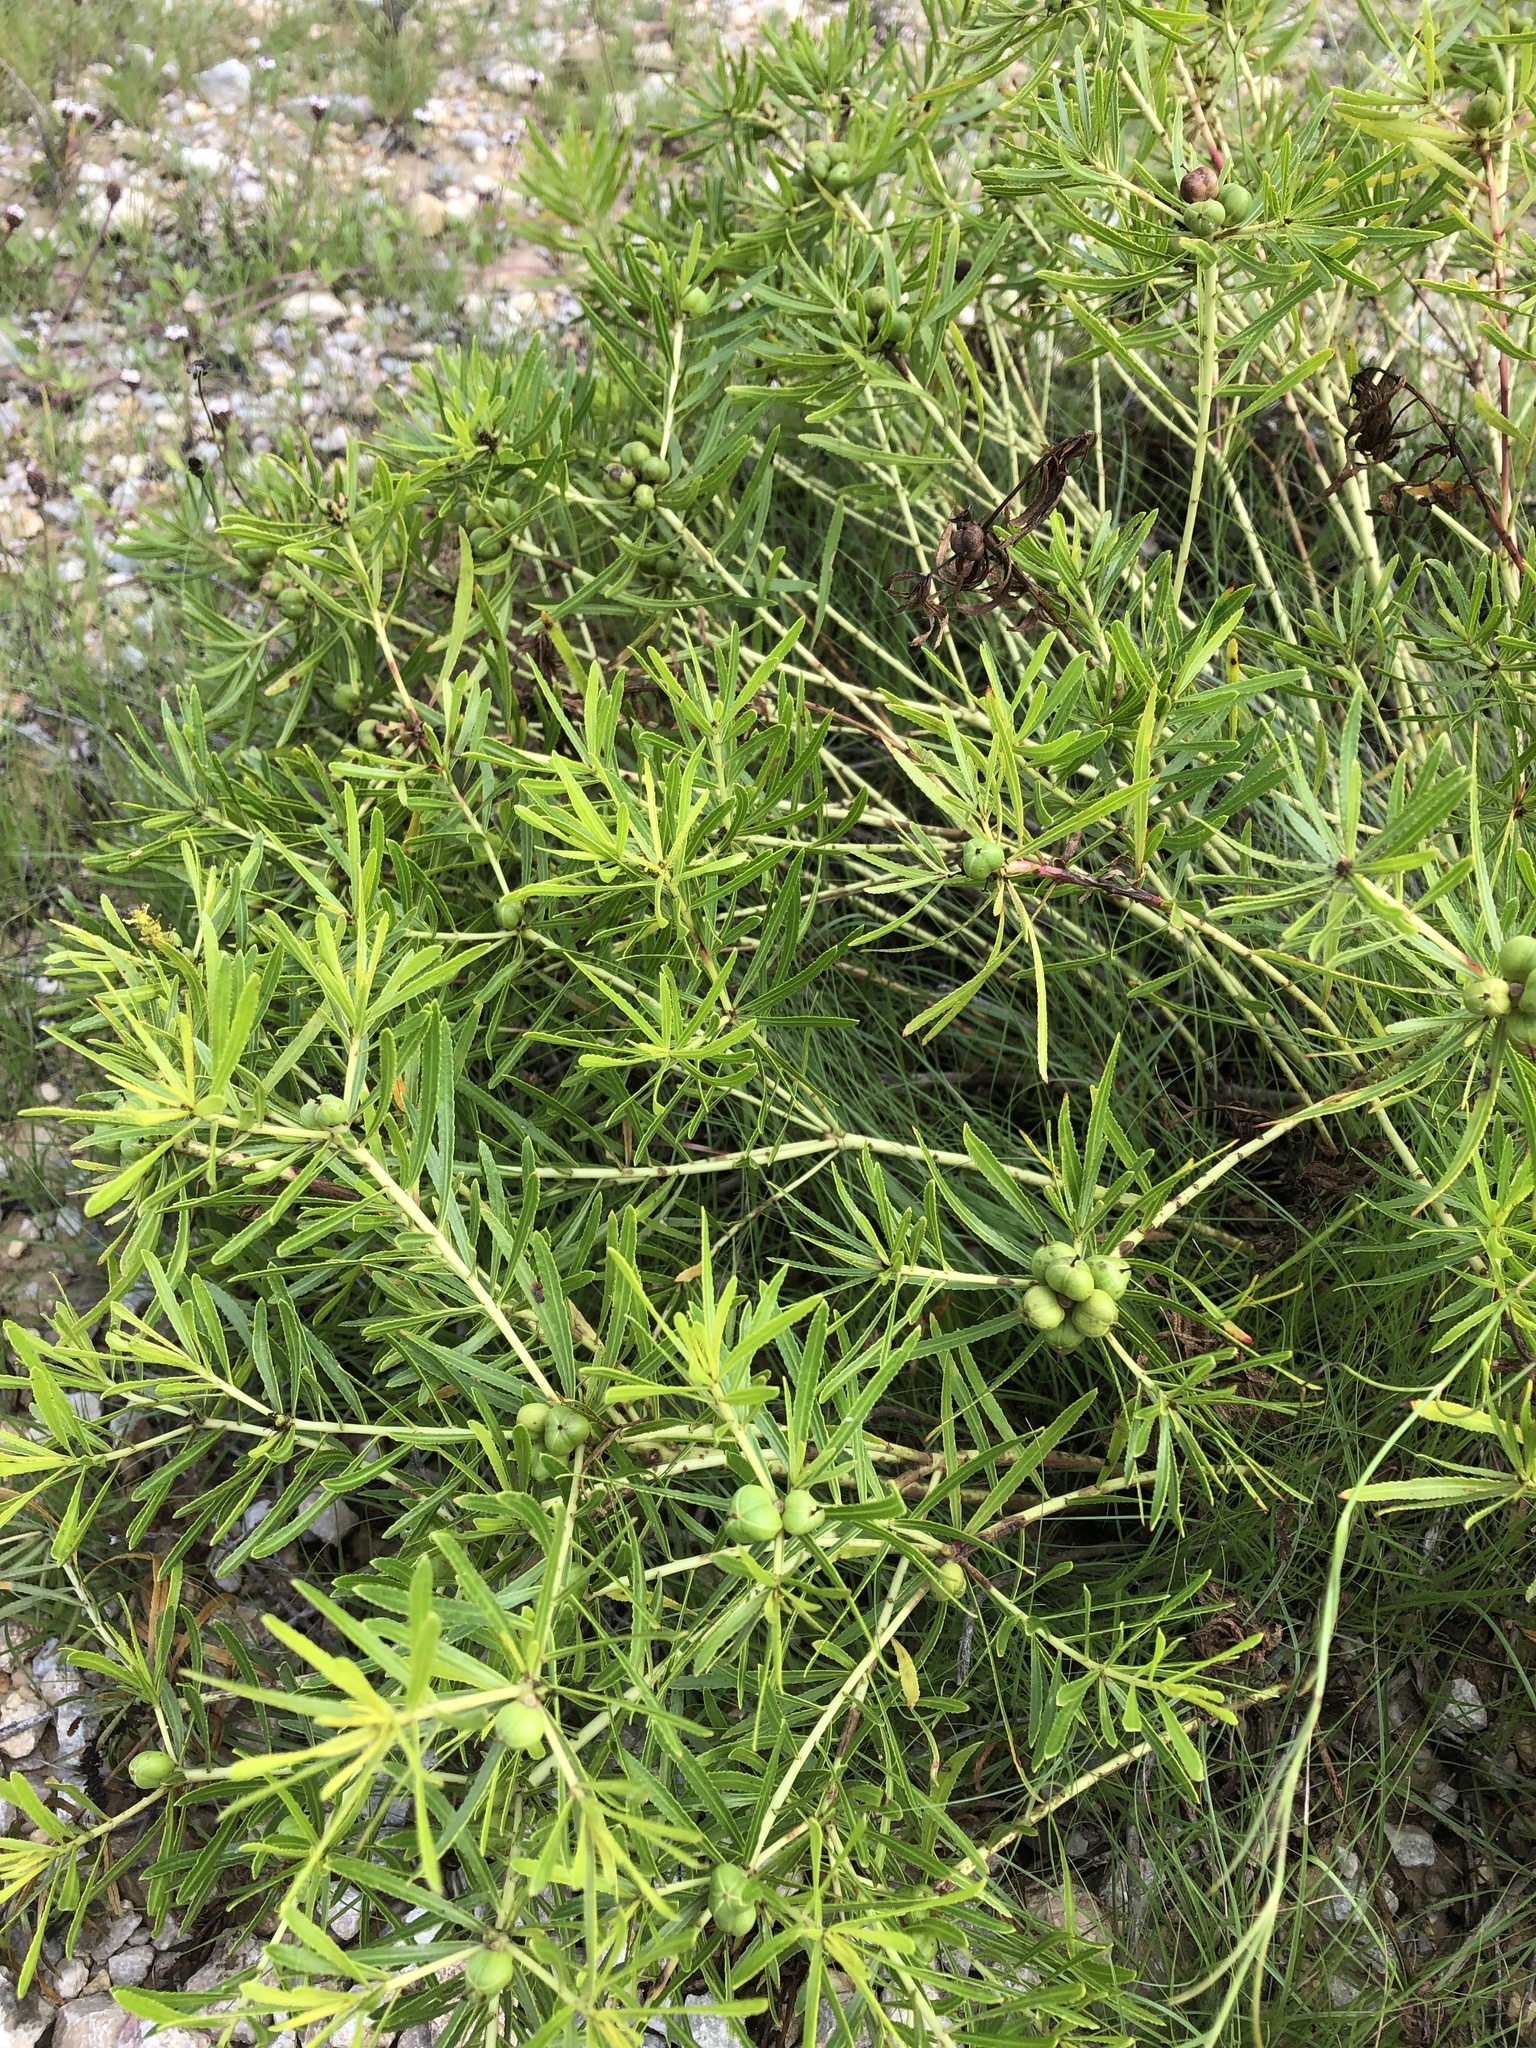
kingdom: Plantae
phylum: Tracheophyta
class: Magnoliopsida
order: Malpighiales
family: Euphorbiaceae
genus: Stillingia
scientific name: Stillingia texana
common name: Texas stillingia
